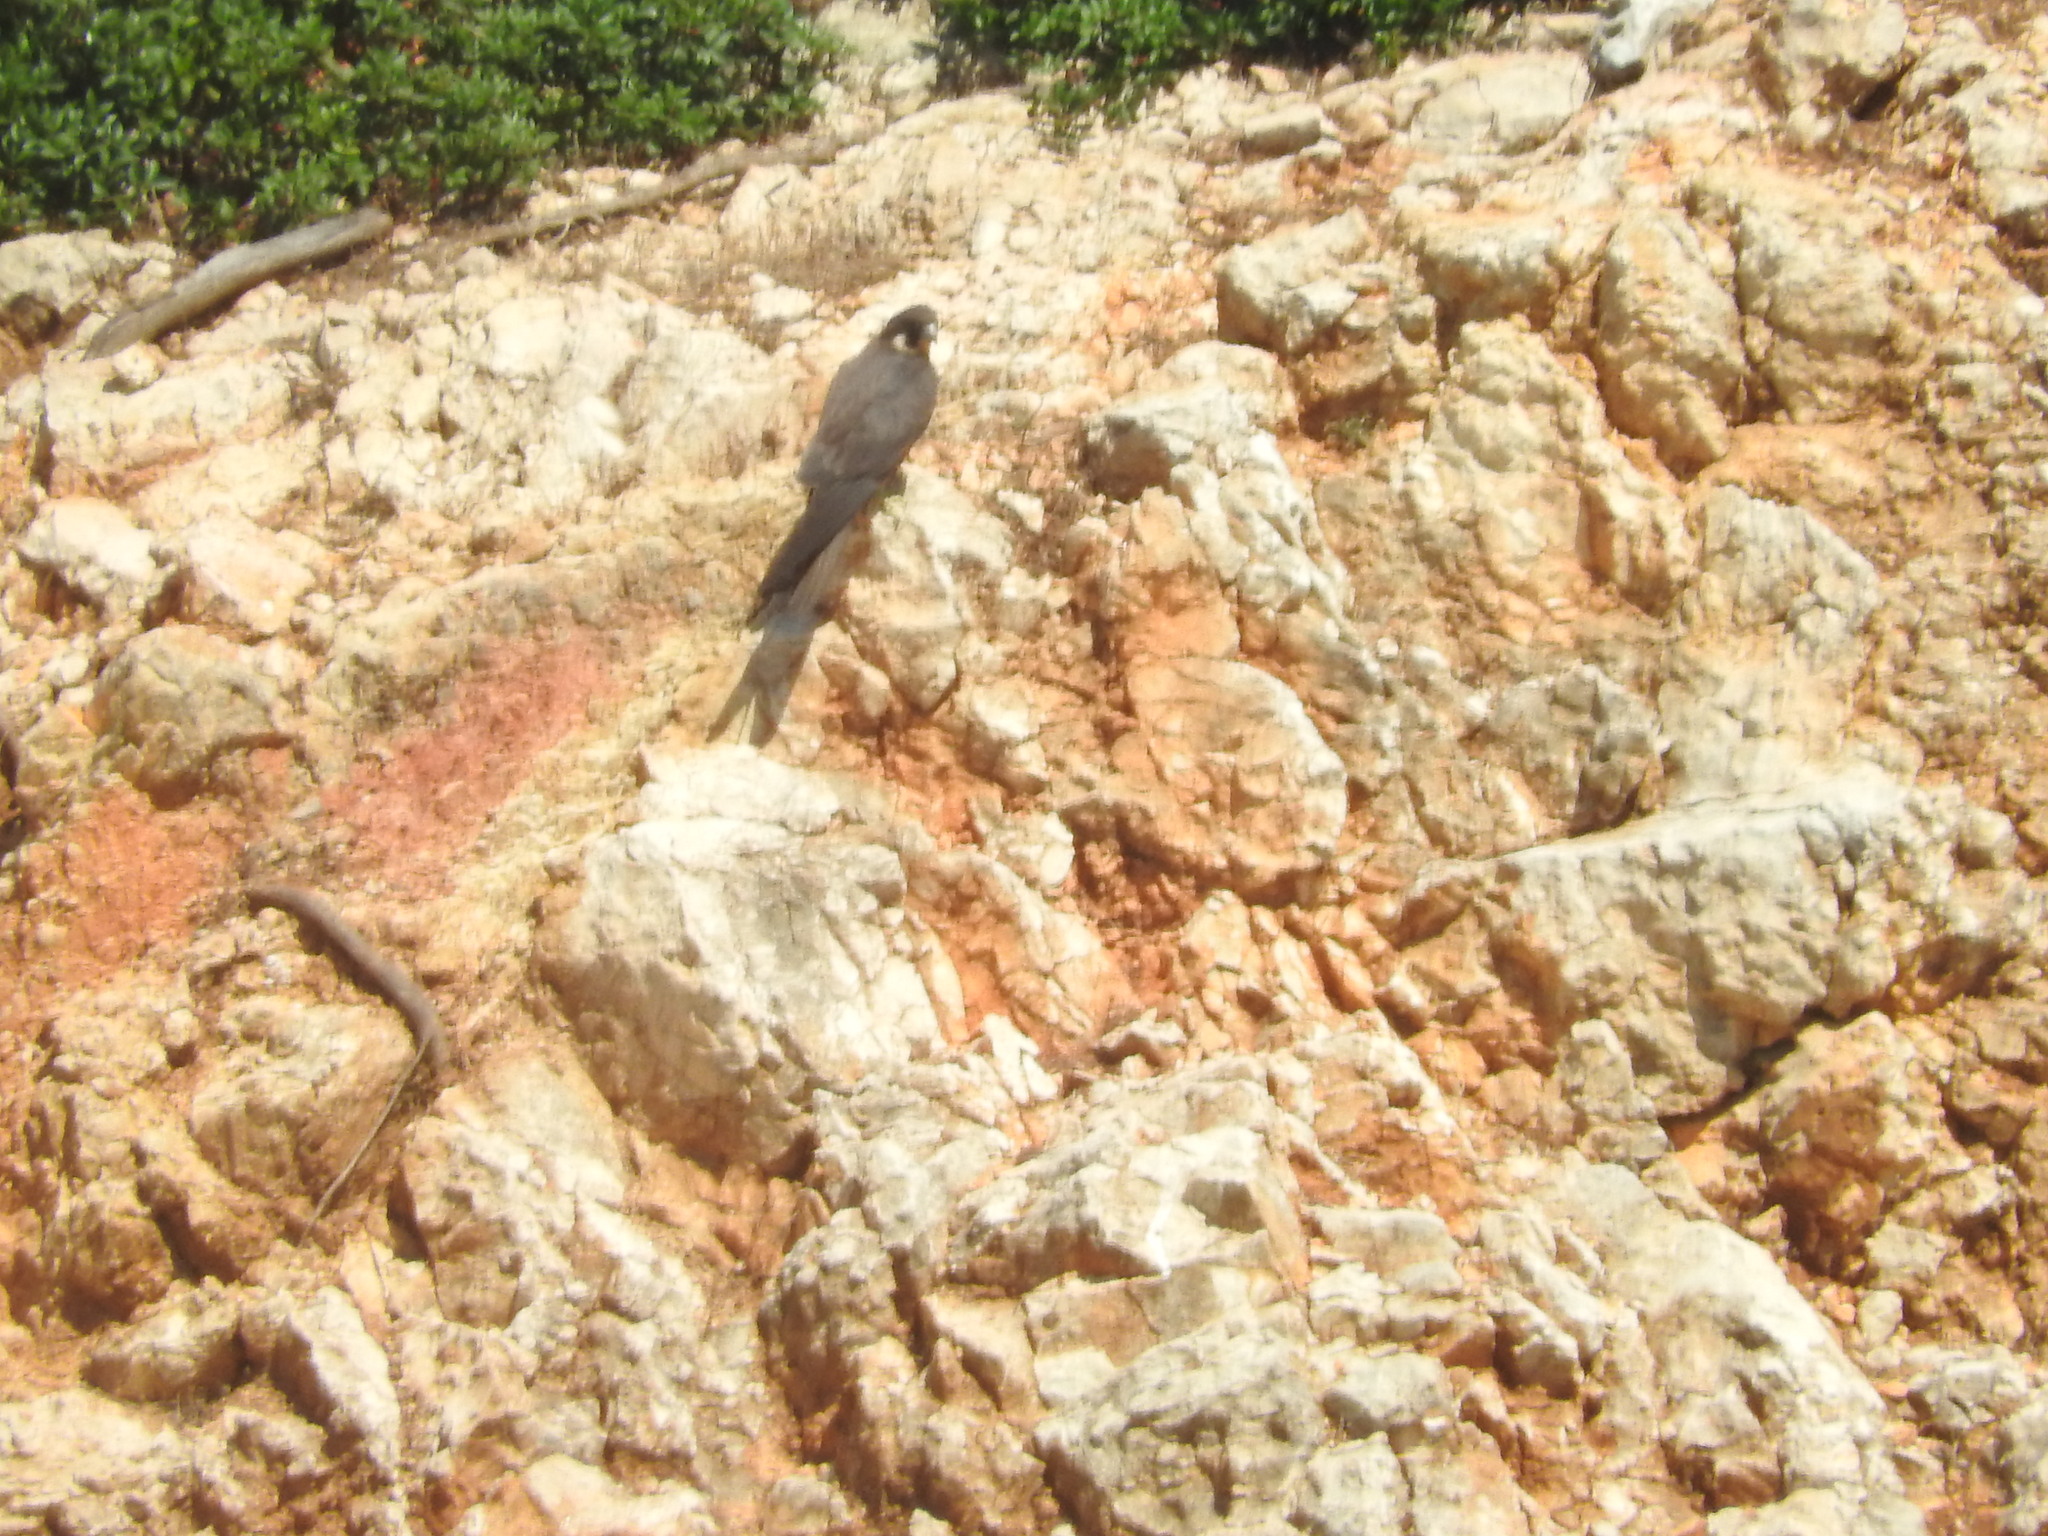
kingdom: Animalia
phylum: Chordata
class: Aves
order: Falconiformes
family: Falconidae
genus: Falco
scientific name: Falco eleonorae
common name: Eleonora's falcon
